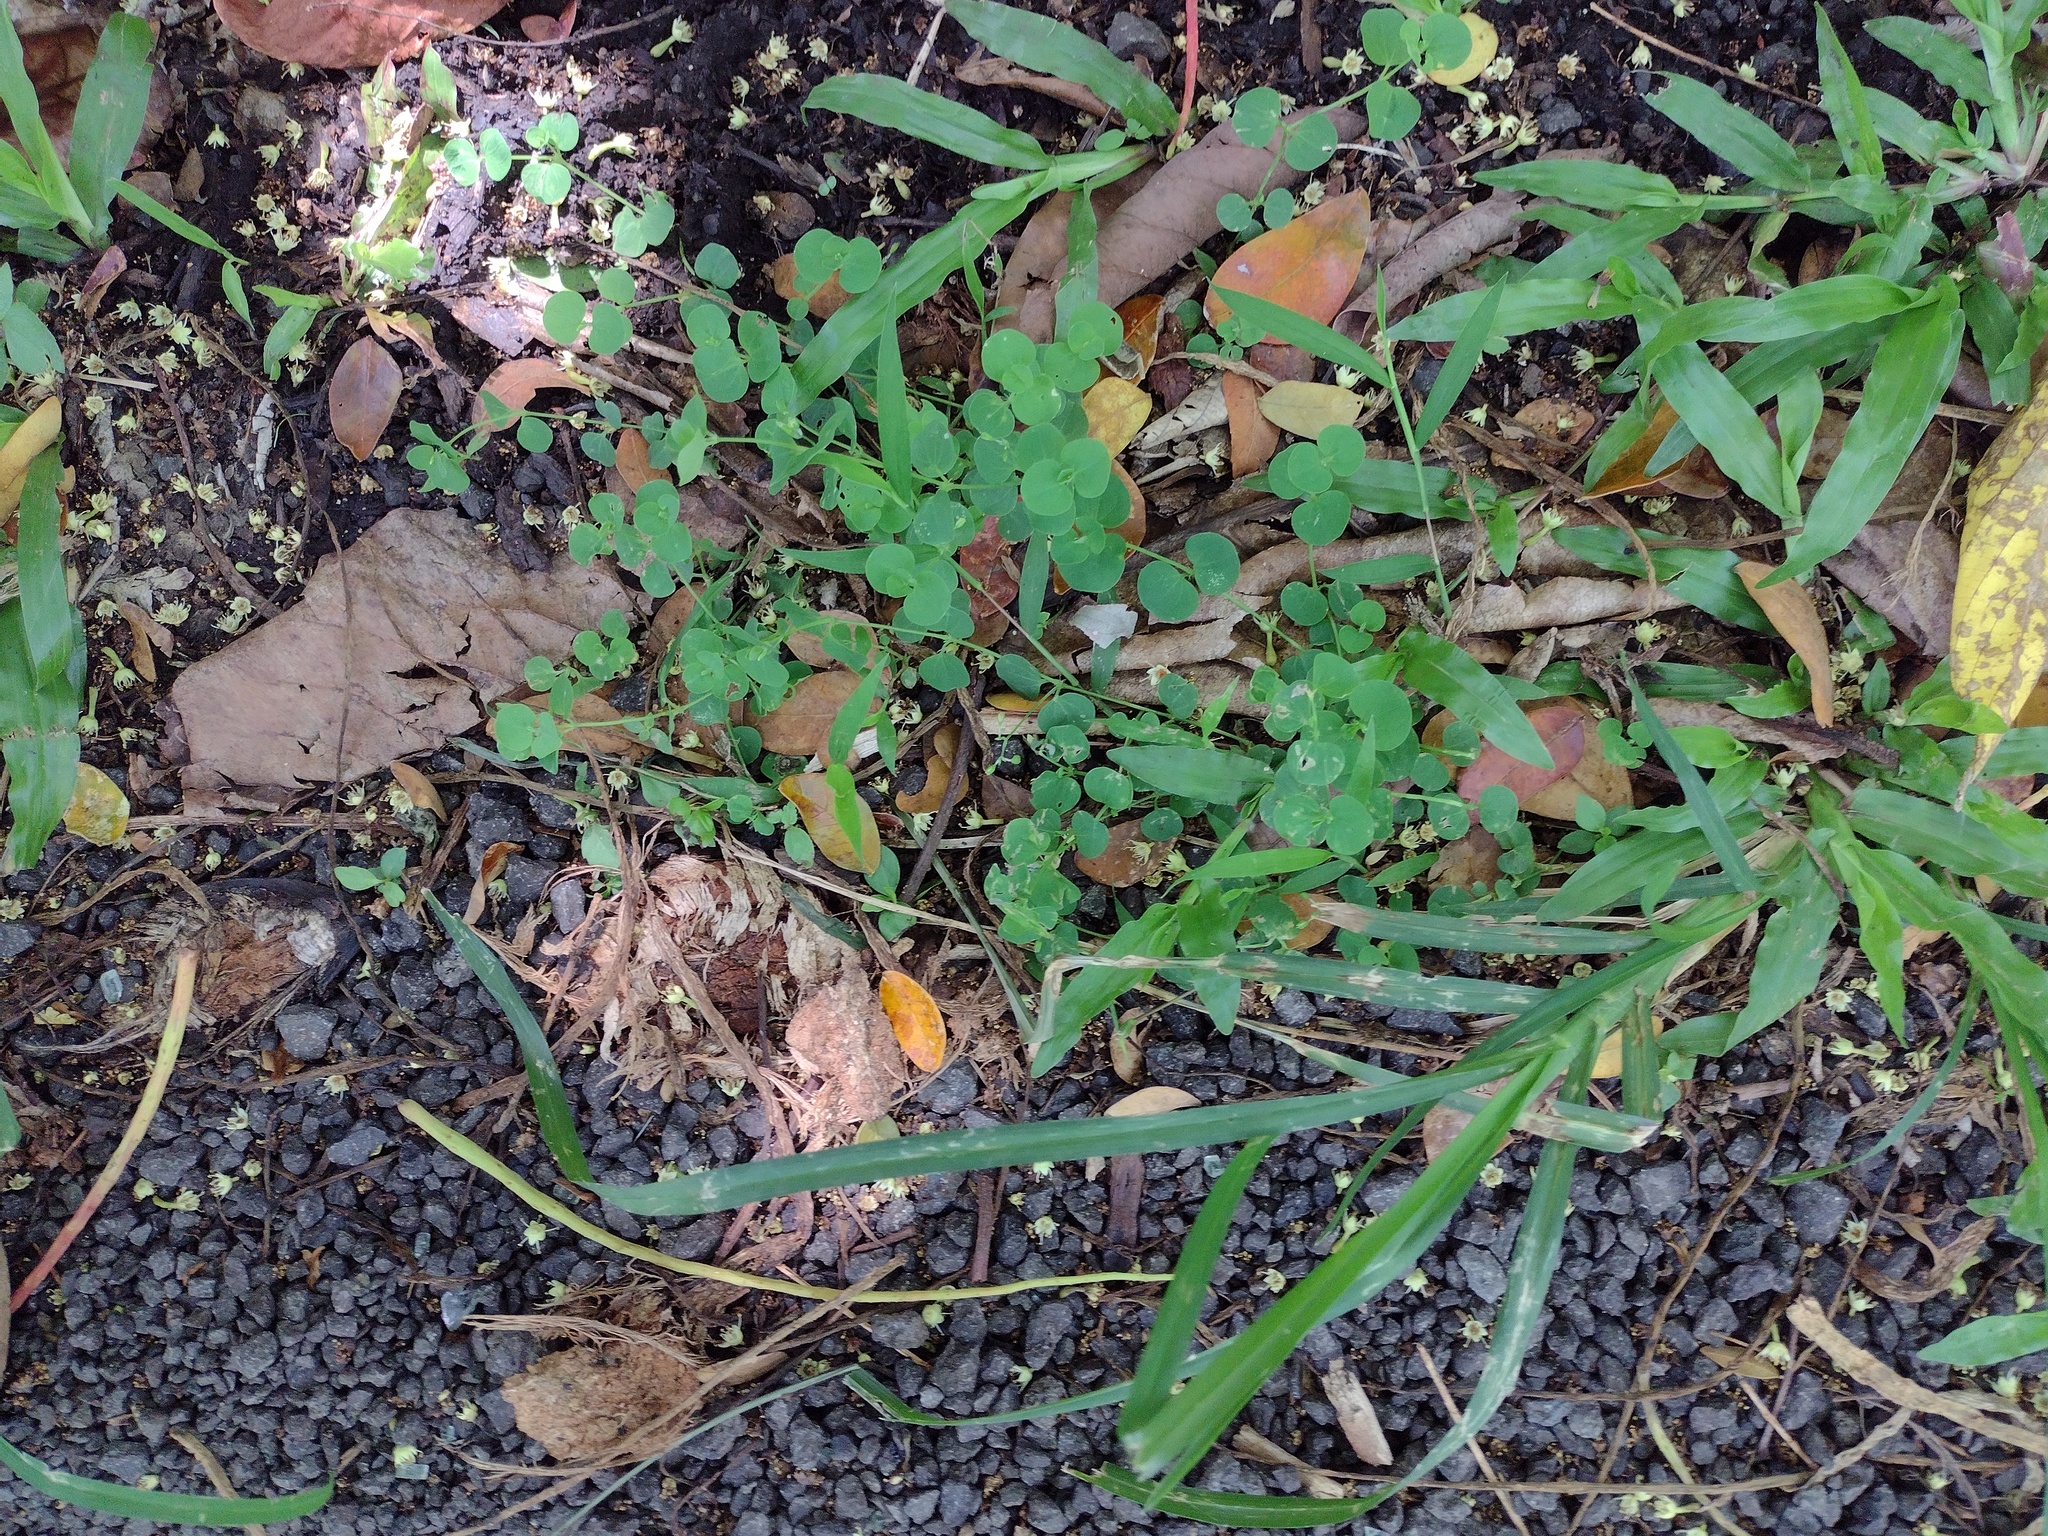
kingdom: Plantae
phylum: Tracheophyta
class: Magnoliopsida
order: Caryophyllales
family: Caryophyllaceae
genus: Drymaria
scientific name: Drymaria cordata
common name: Whitesnow
